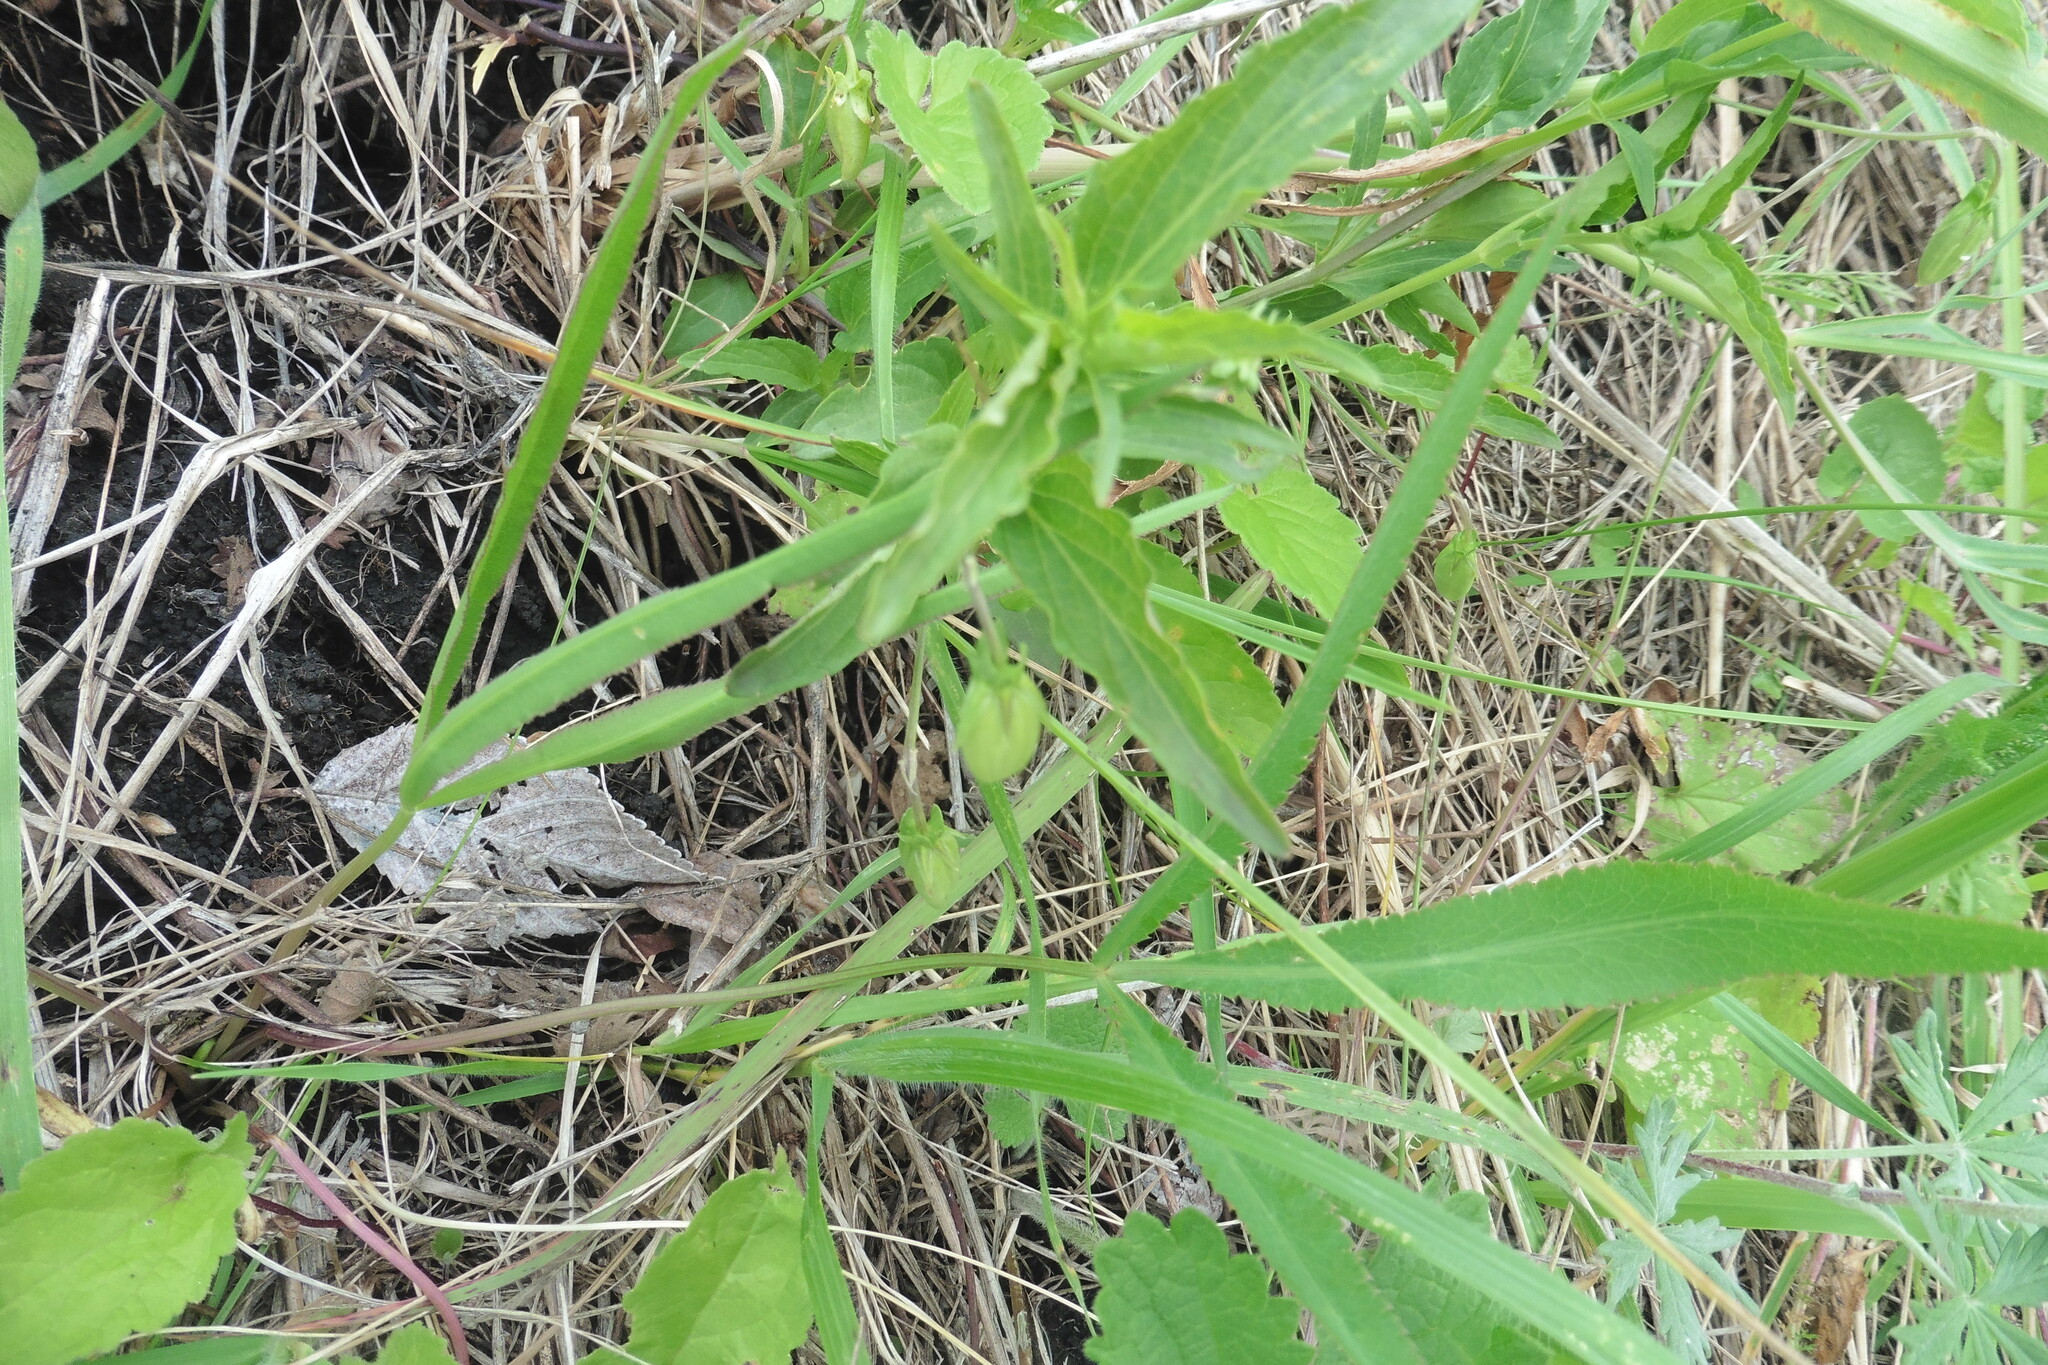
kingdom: Plantae
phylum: Tracheophyta
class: Magnoliopsida
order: Apiales
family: Apiaceae
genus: Eryngium
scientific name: Eryngium planum
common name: Blue eryngo
